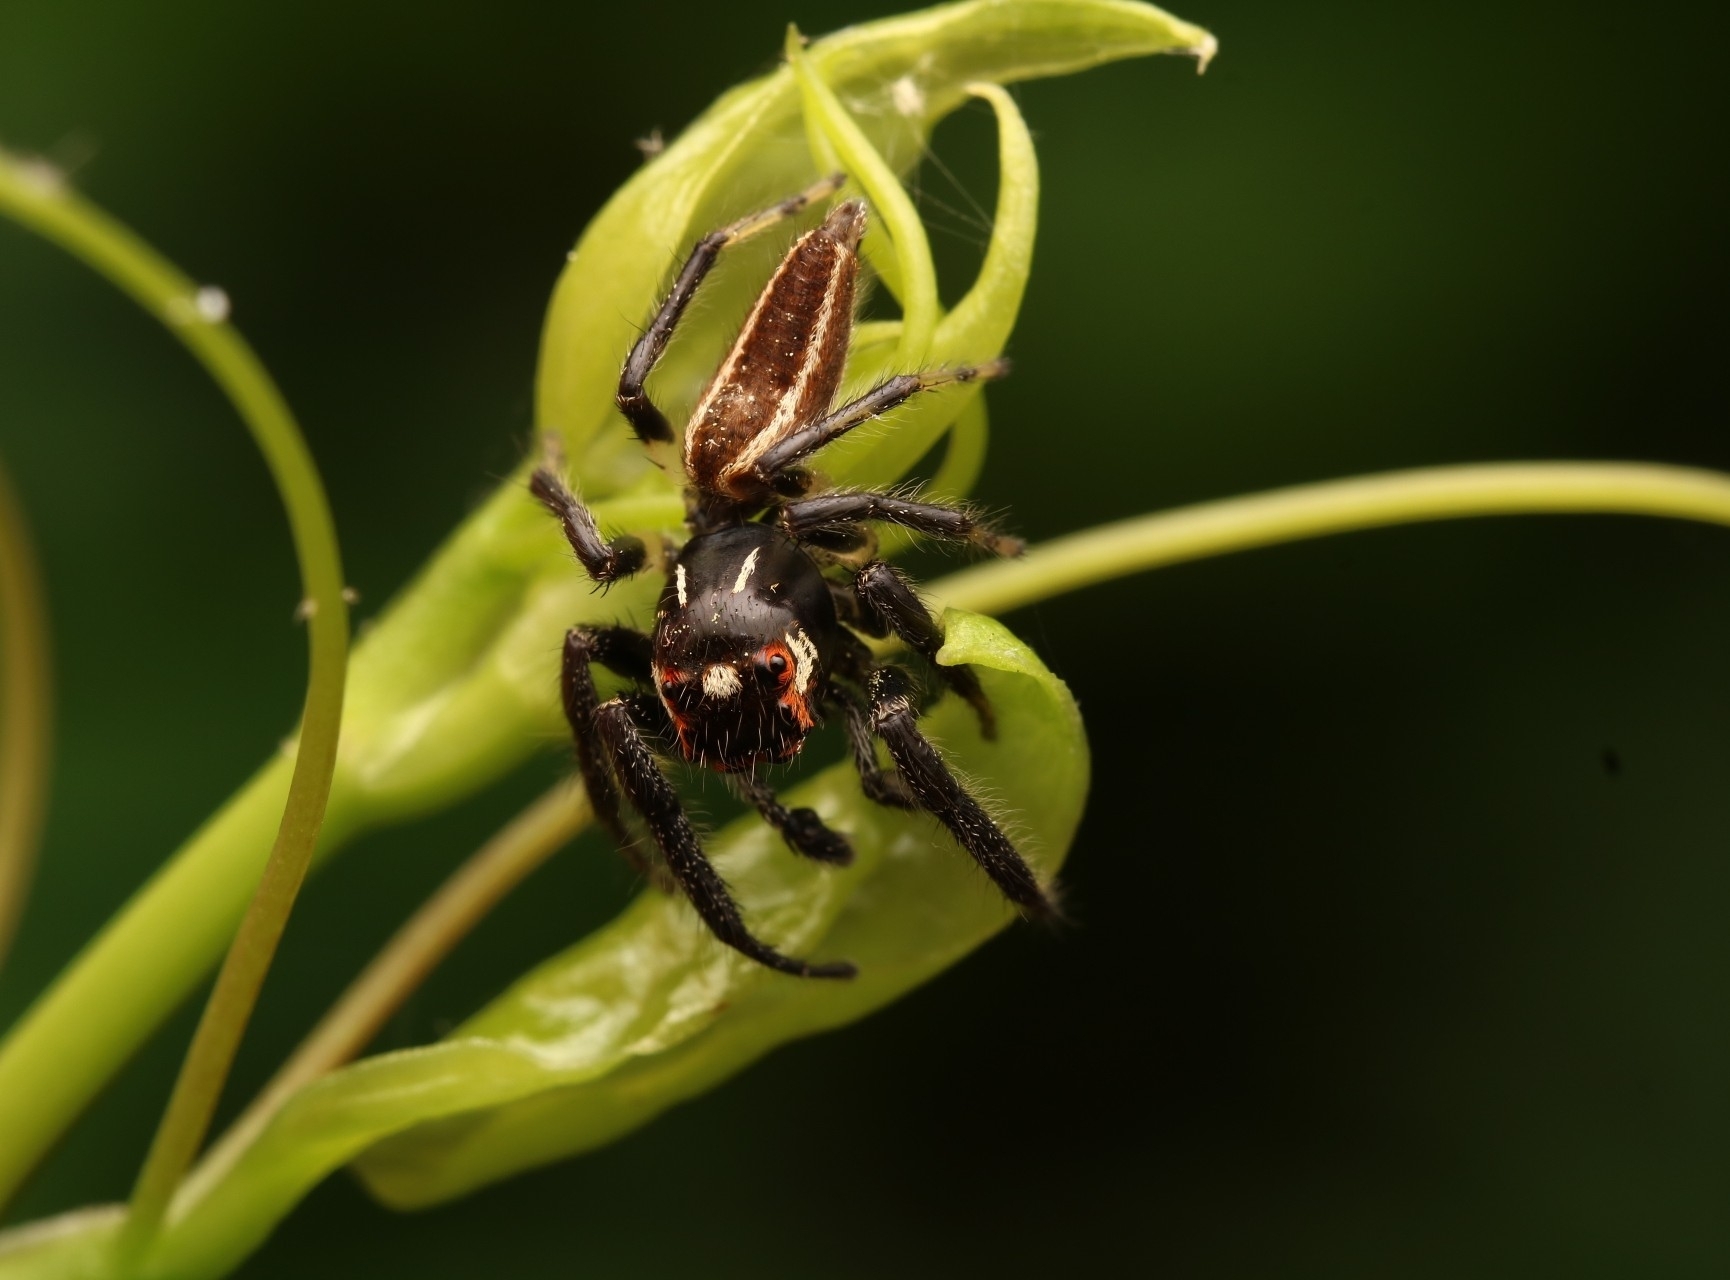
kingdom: Animalia
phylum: Arthropoda
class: Arachnida
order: Araneae
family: Salticidae
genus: Colonus
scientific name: Colonus sylvanus
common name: Jumping spiders
